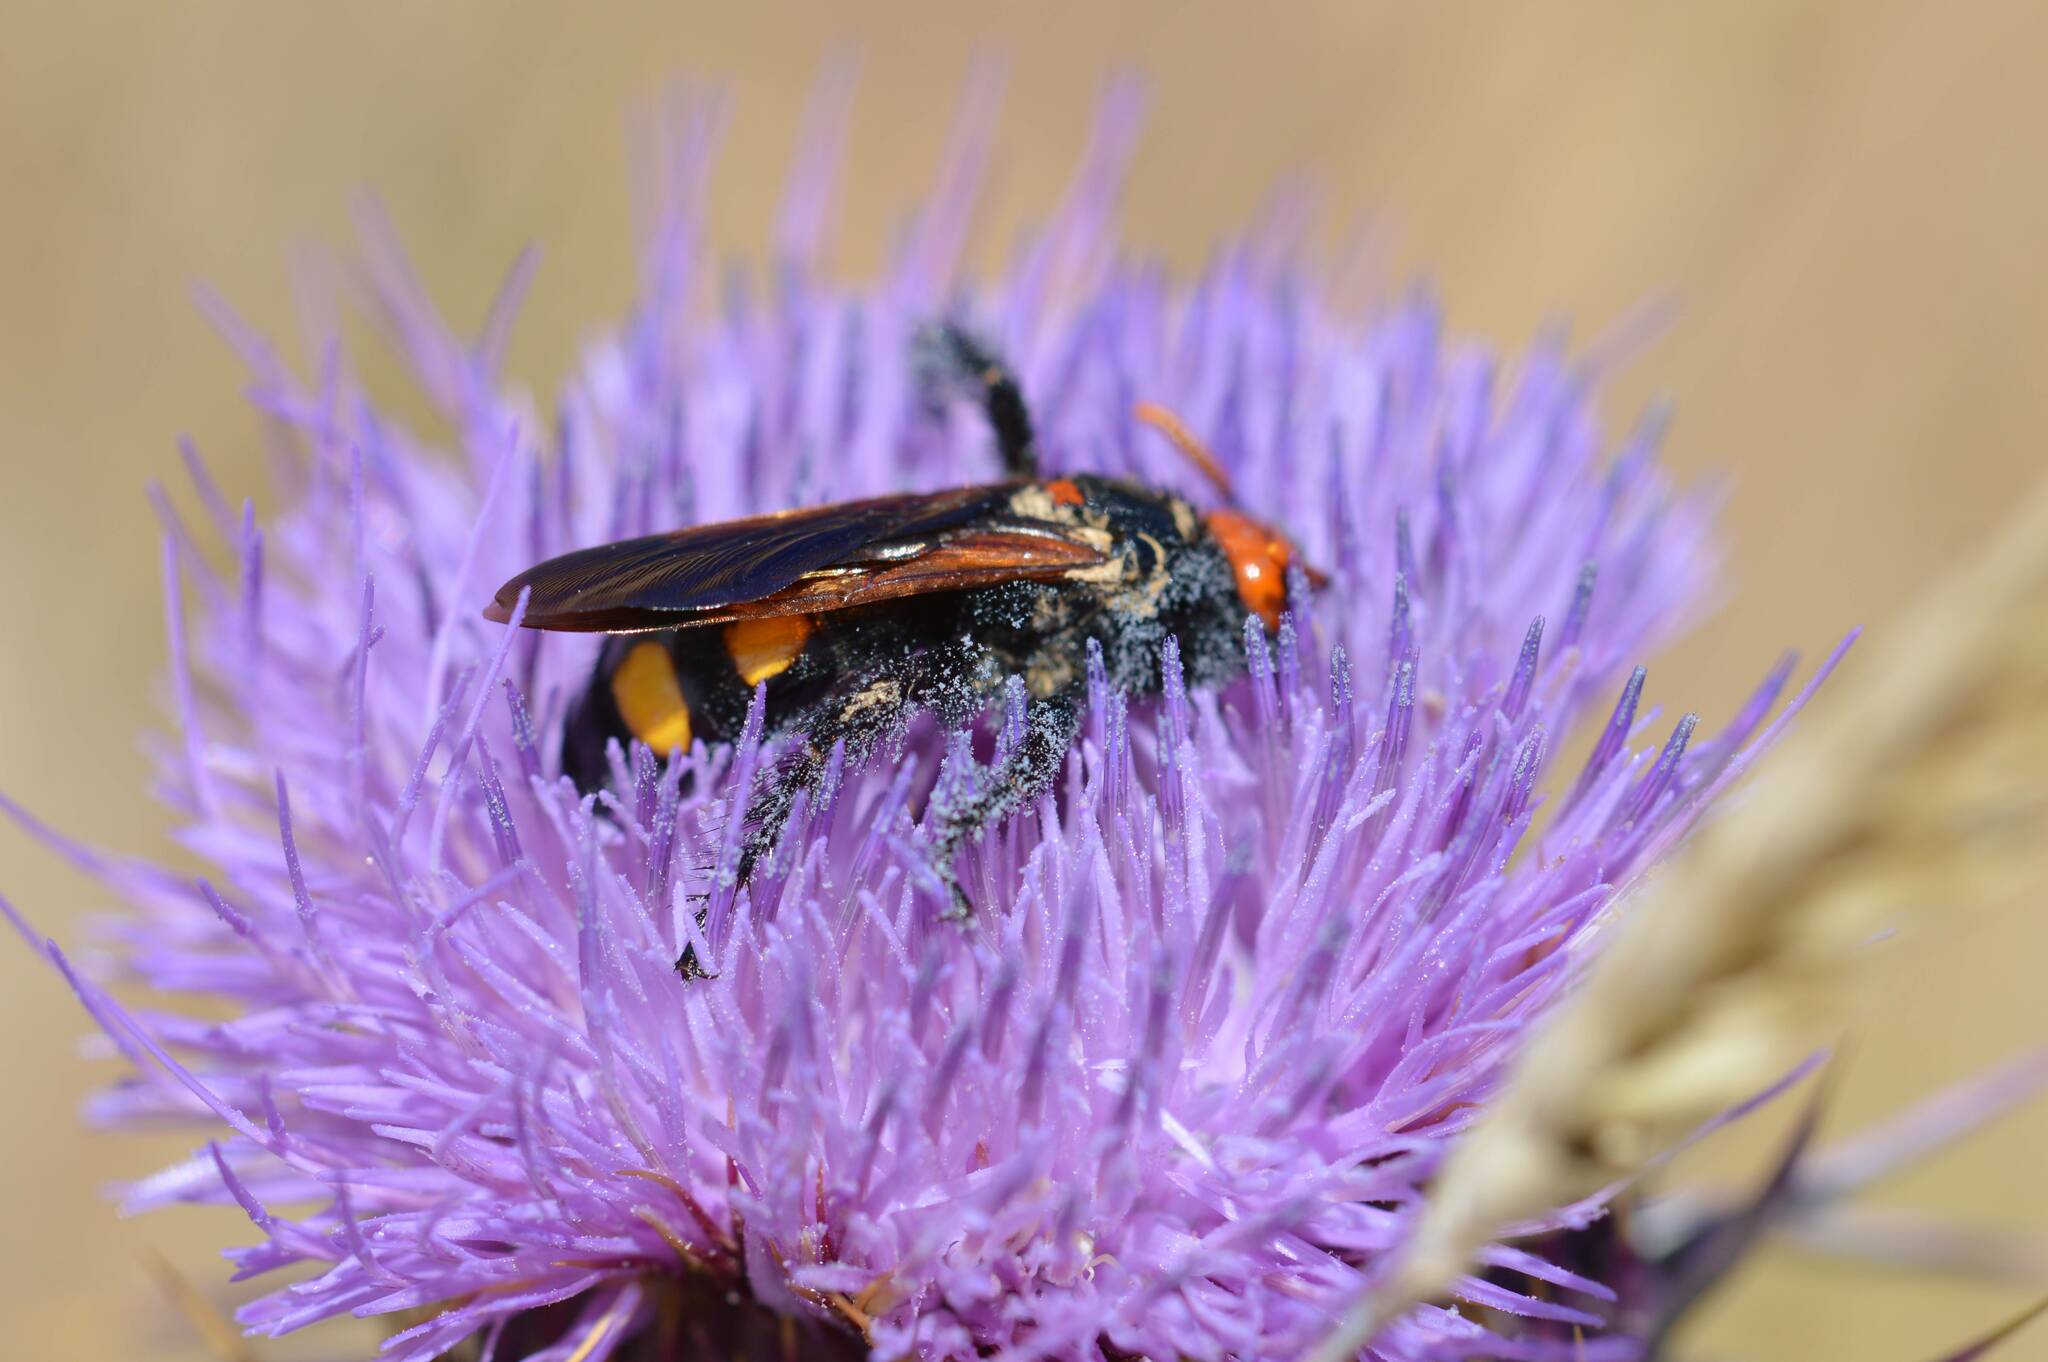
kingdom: Animalia
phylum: Arthropoda
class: Insecta
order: Hymenoptera
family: Scoliidae
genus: Megascolia
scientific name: Megascolia bidens
